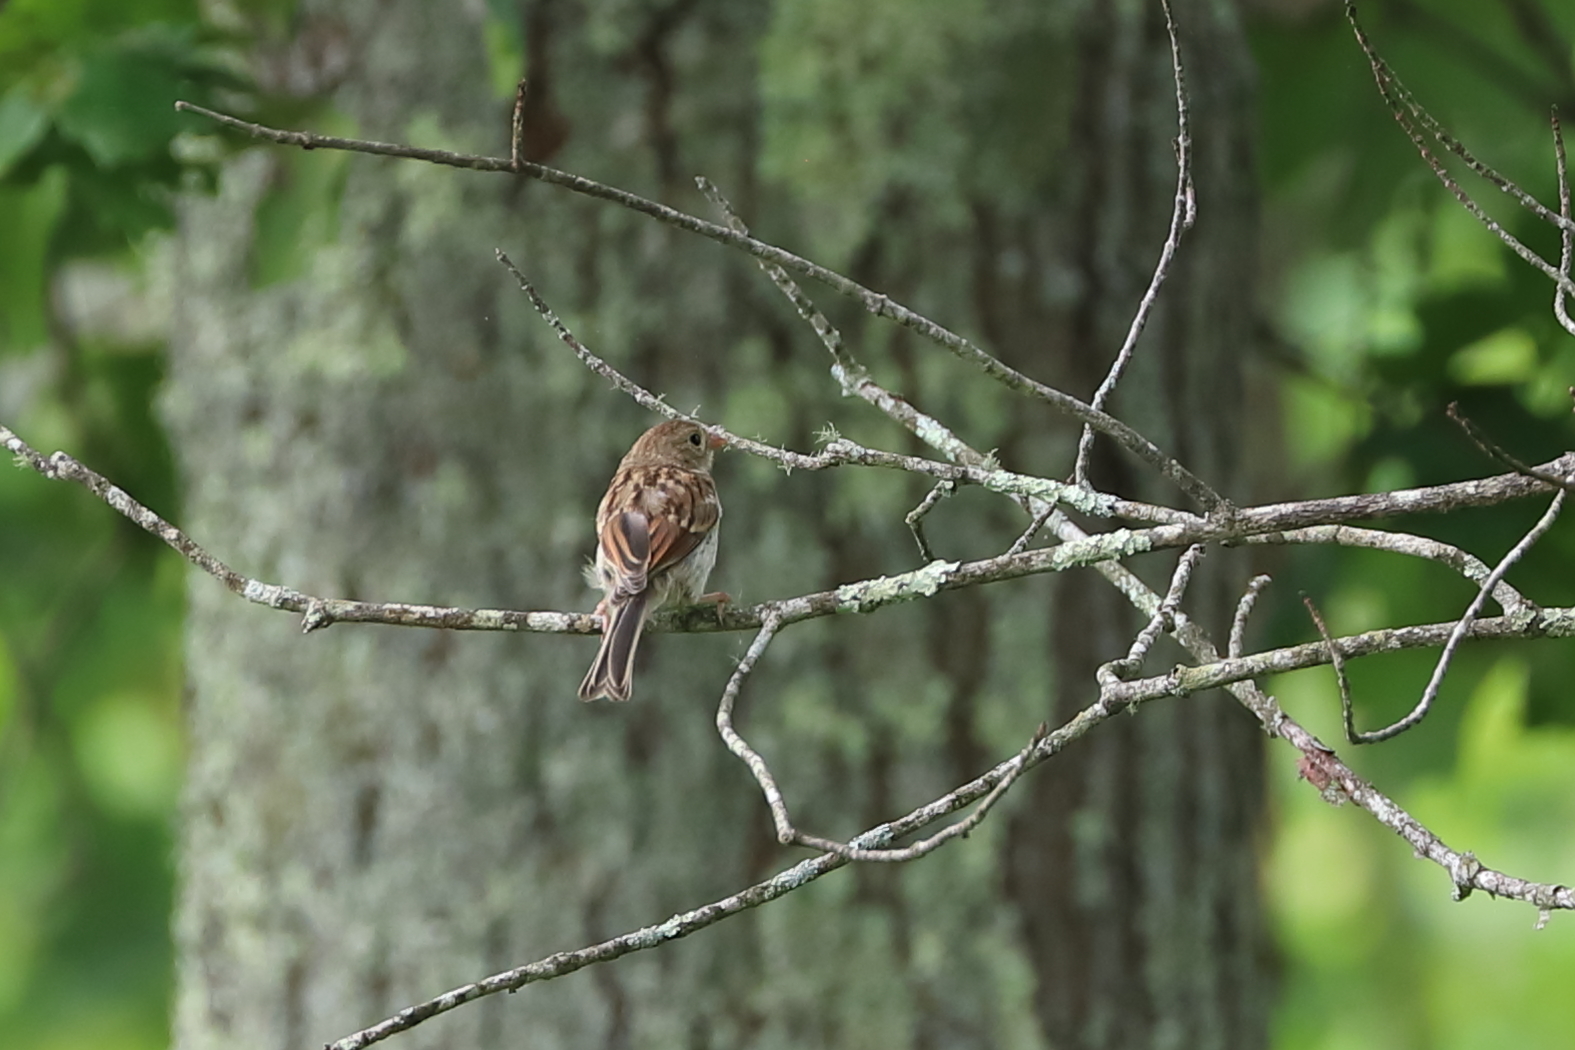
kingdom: Animalia
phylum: Chordata
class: Aves
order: Passeriformes
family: Passerellidae
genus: Spizella
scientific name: Spizella pusilla
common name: Field sparrow
